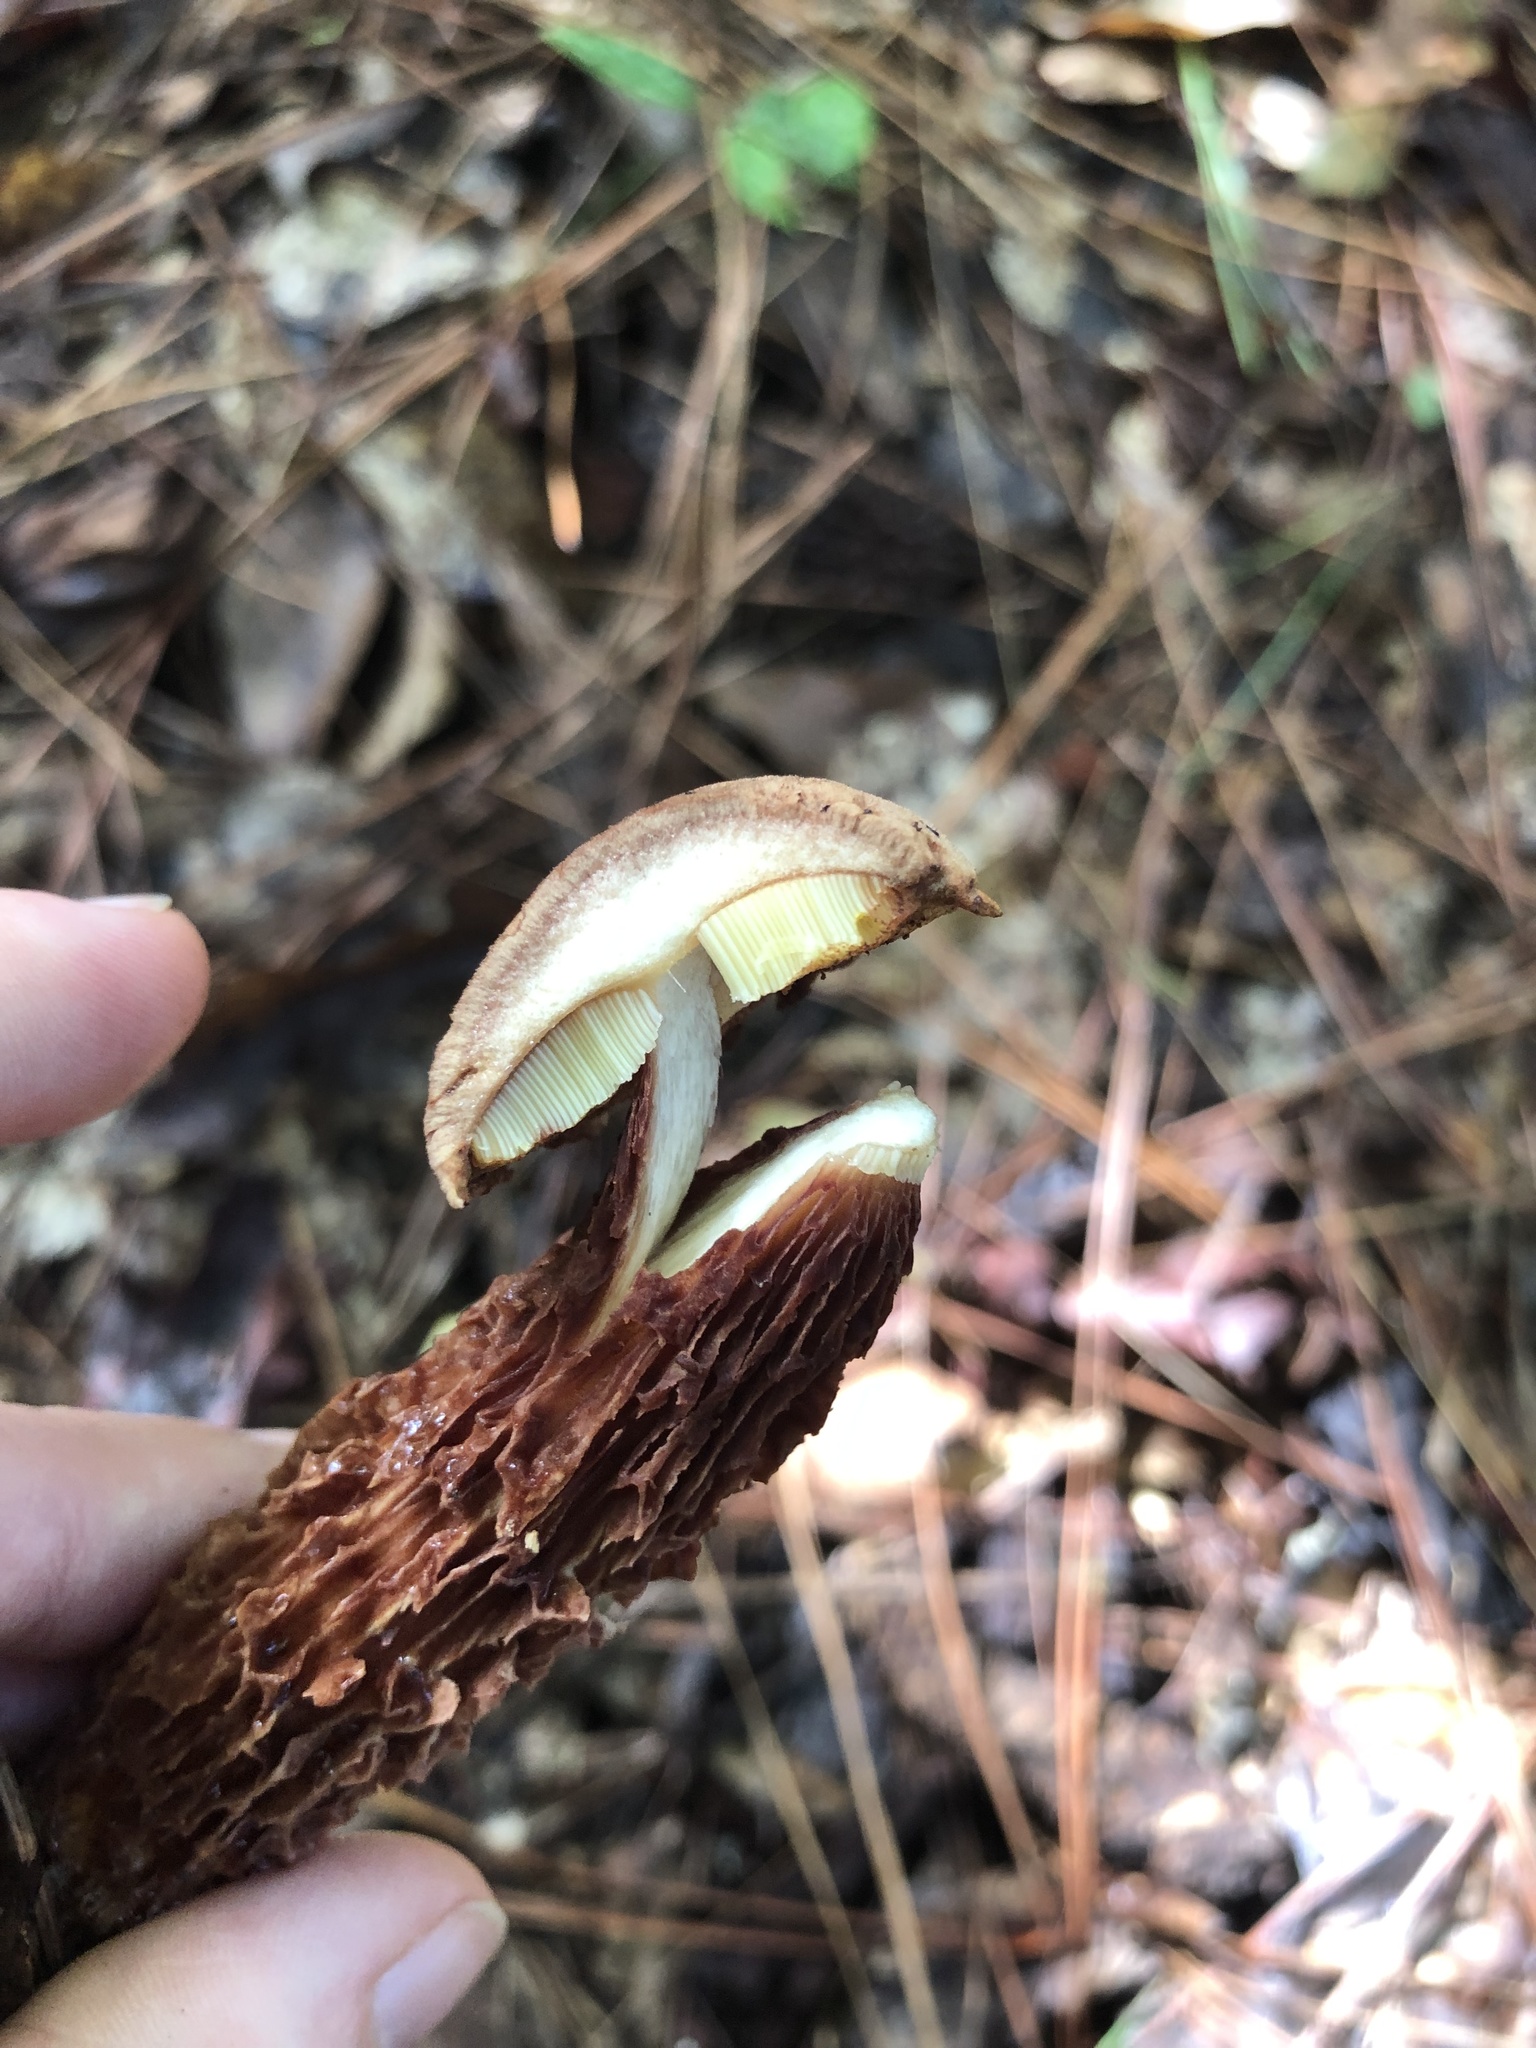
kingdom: Fungi
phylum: Basidiomycota
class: Agaricomycetes
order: Boletales
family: Boletaceae
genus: Aureoboletus
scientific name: Aureoboletus russellii
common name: Russell's bolete
